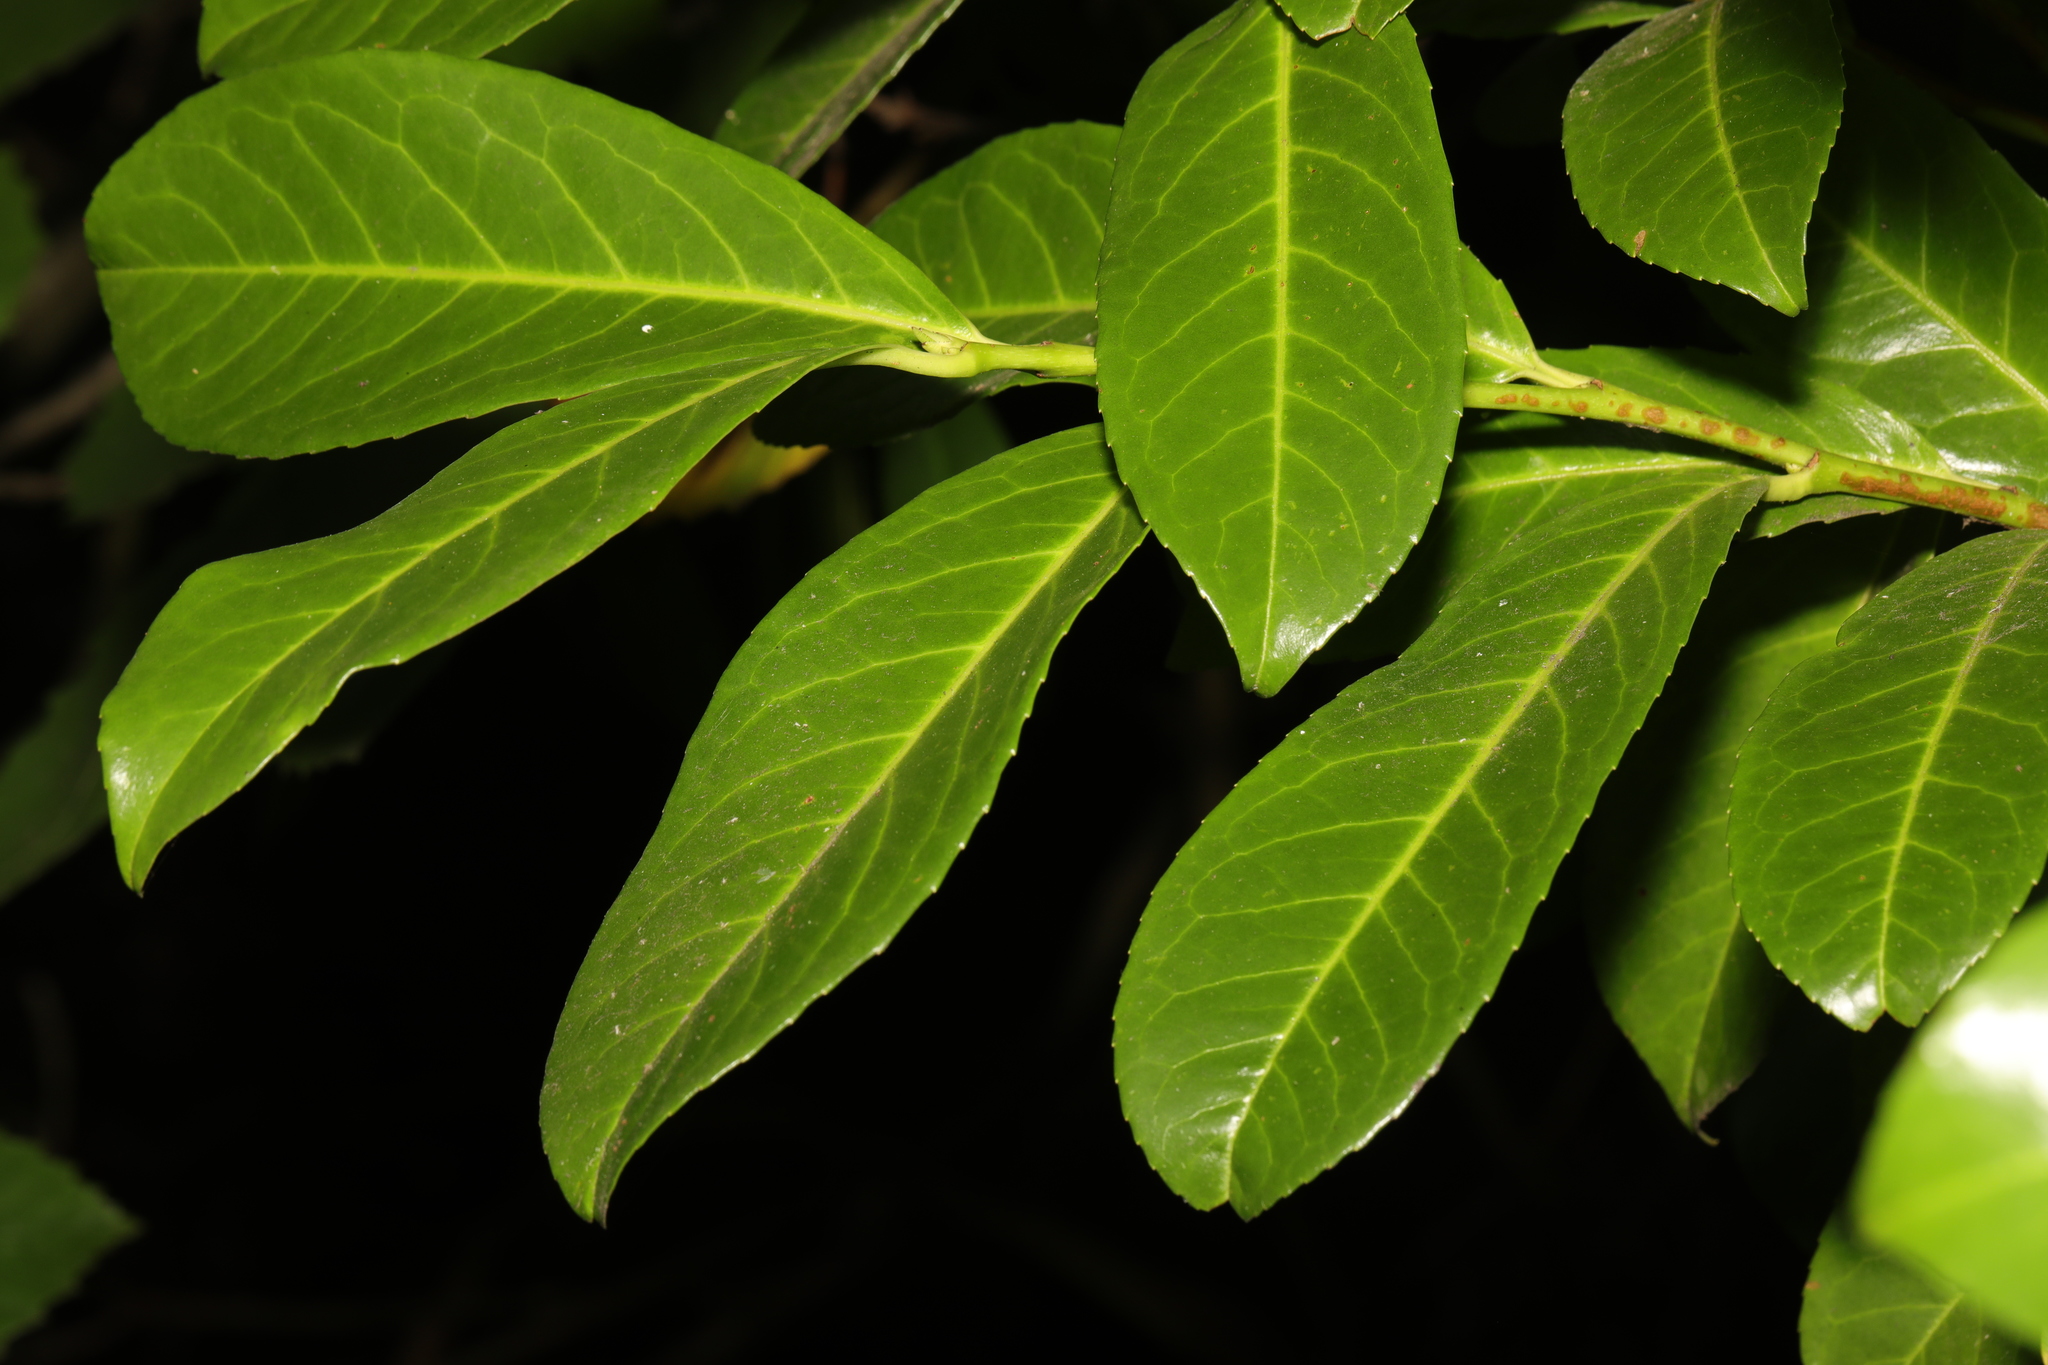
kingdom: Plantae
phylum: Tracheophyta
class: Magnoliopsida
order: Rosales
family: Rosaceae
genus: Prunus
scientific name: Prunus laurocerasus
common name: Cherry laurel
